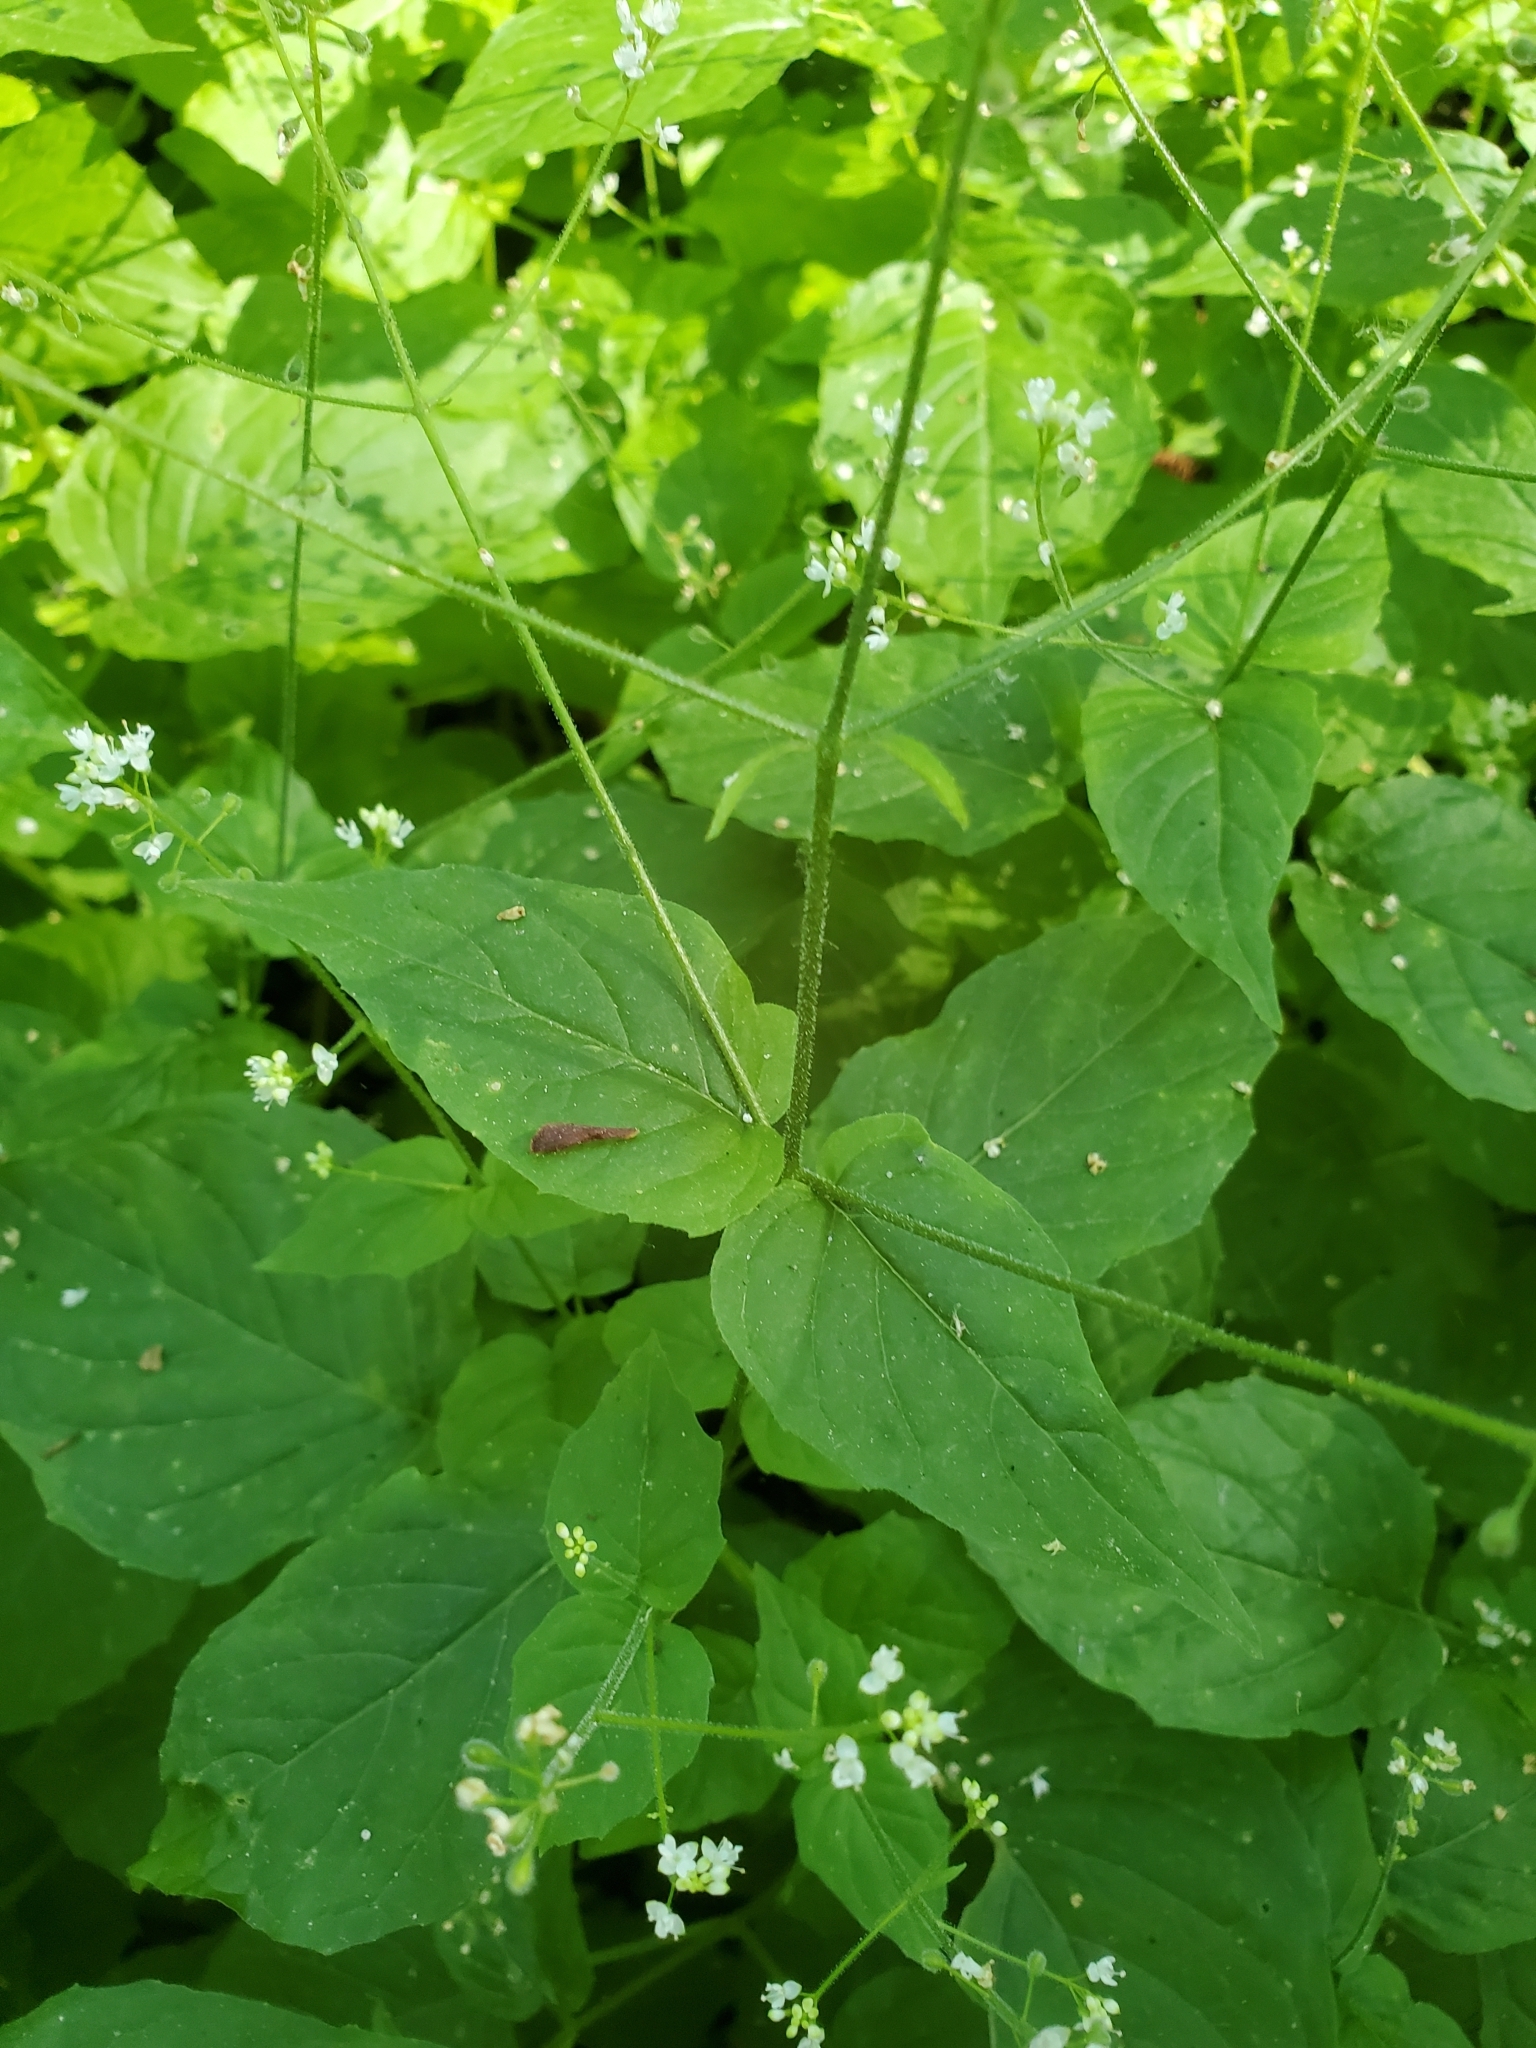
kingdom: Plantae
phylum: Tracheophyta
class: Magnoliopsida
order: Myrtales
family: Onagraceae
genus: Circaea
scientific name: Circaea alpina
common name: Alpine enchanter's-nightshade
